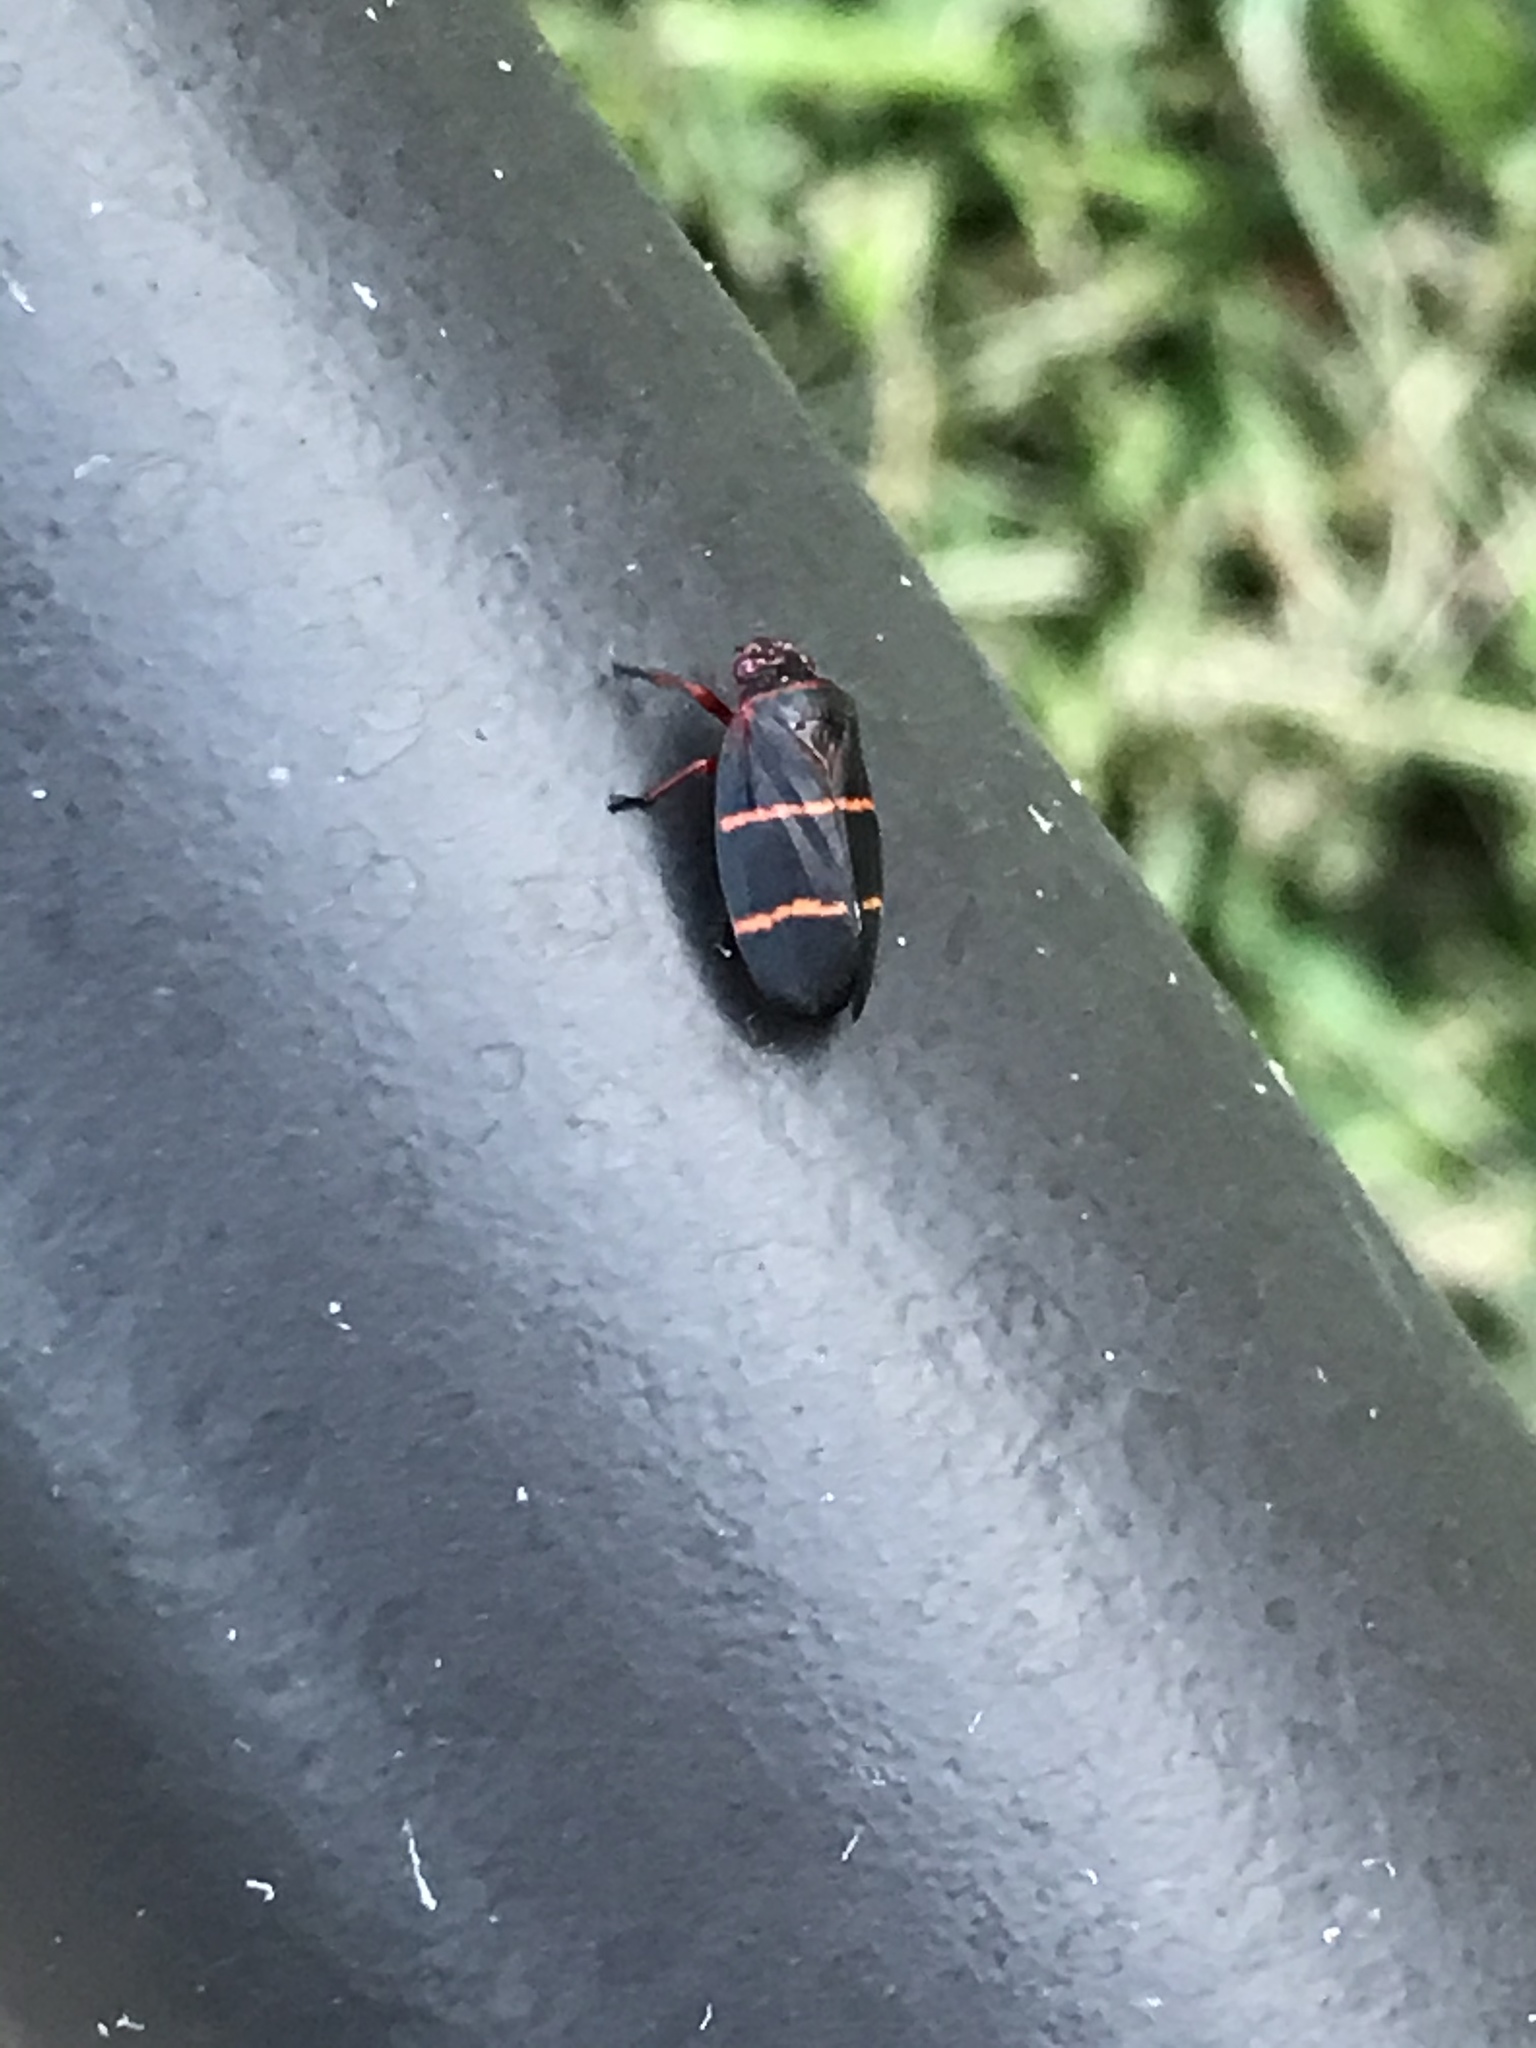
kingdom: Animalia
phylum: Arthropoda
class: Insecta
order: Hemiptera
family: Cercopidae
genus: Prosapia
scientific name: Prosapia bicincta
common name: Twolined spittlebug
